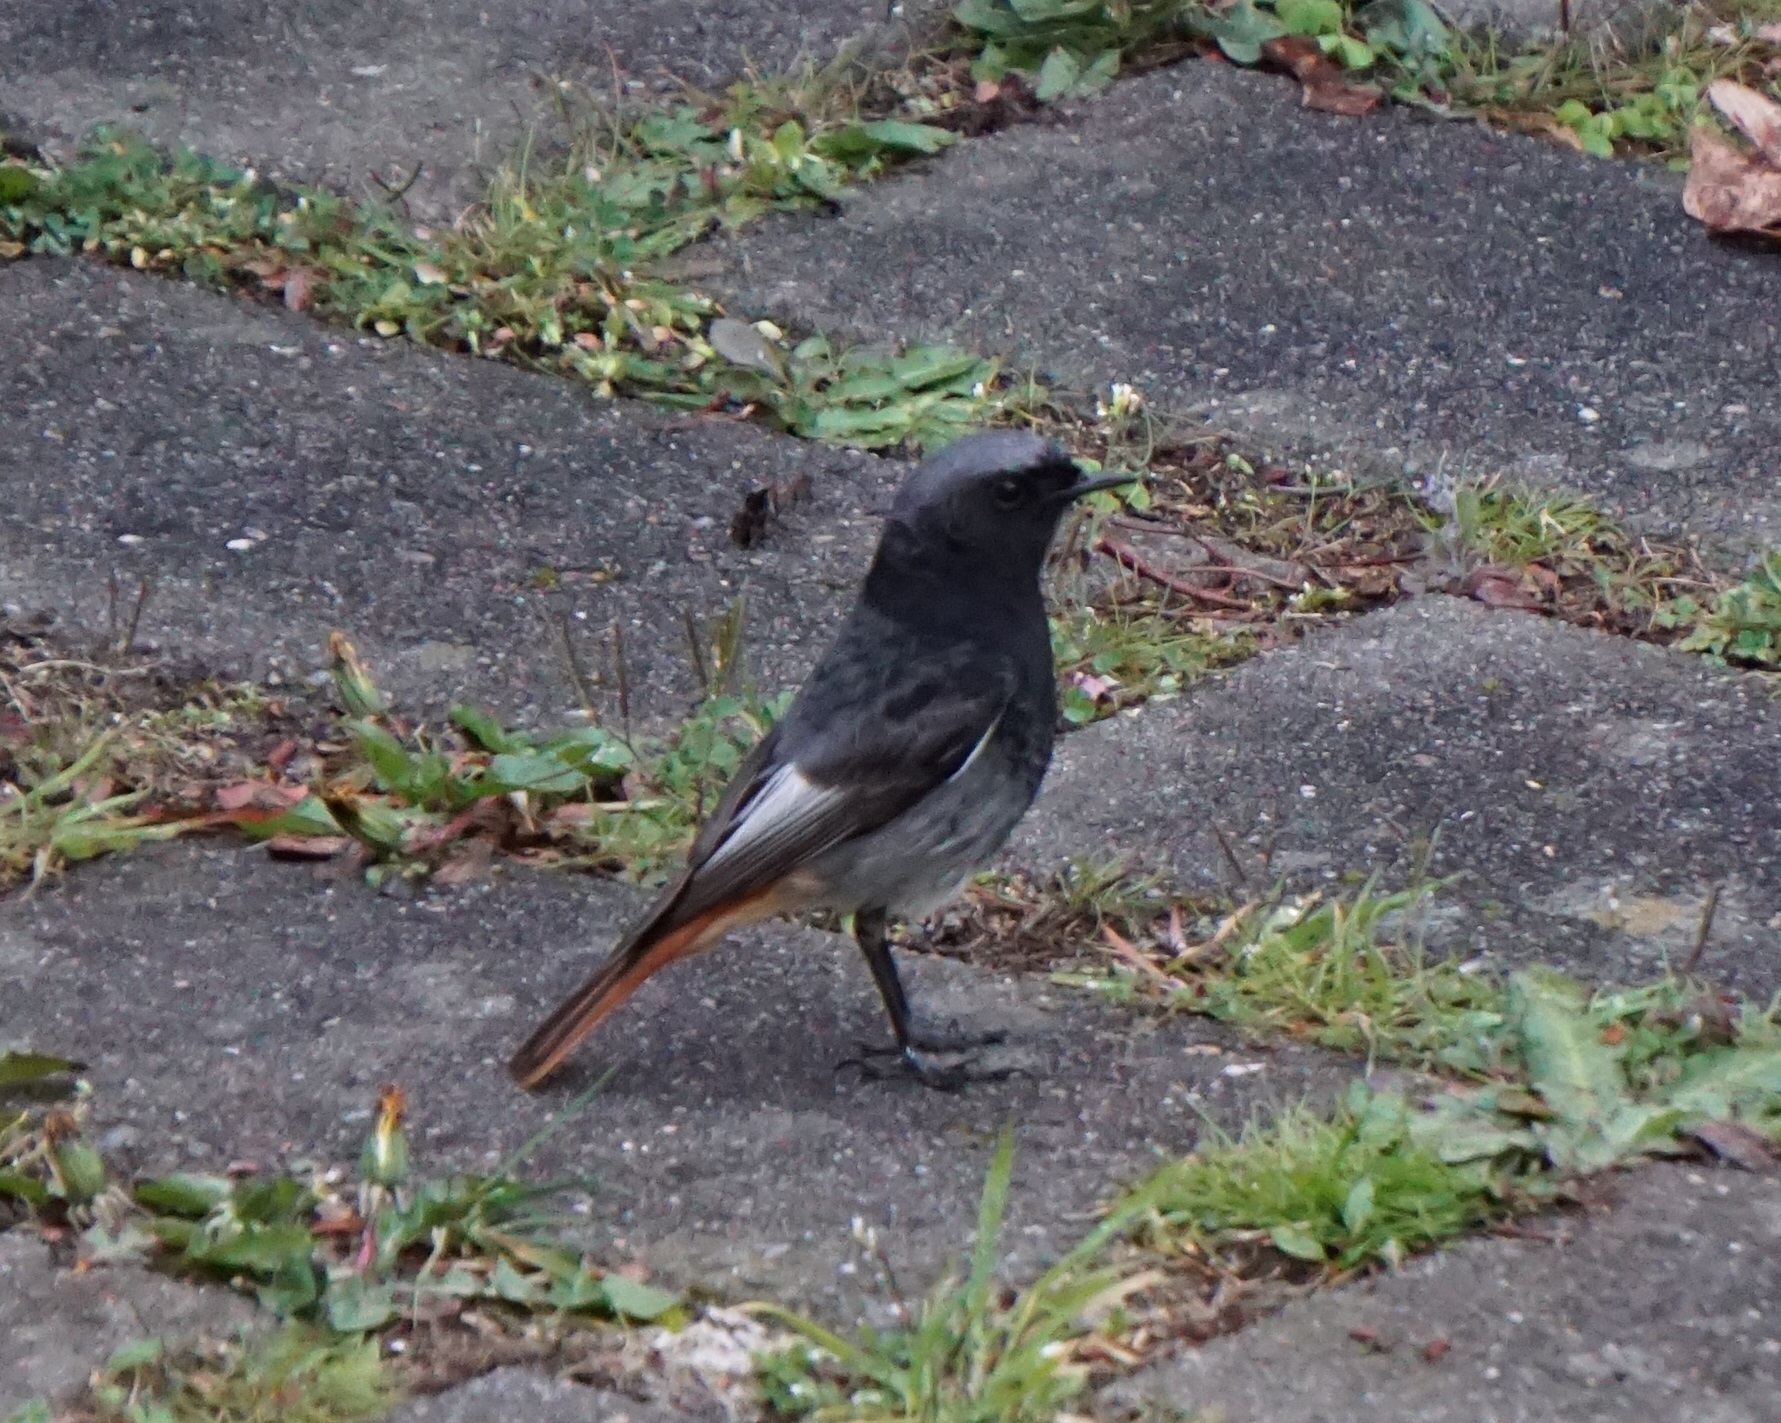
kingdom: Animalia
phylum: Chordata
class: Aves
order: Passeriformes
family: Muscicapidae
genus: Phoenicurus
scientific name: Phoenicurus ochruros
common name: Black redstart
